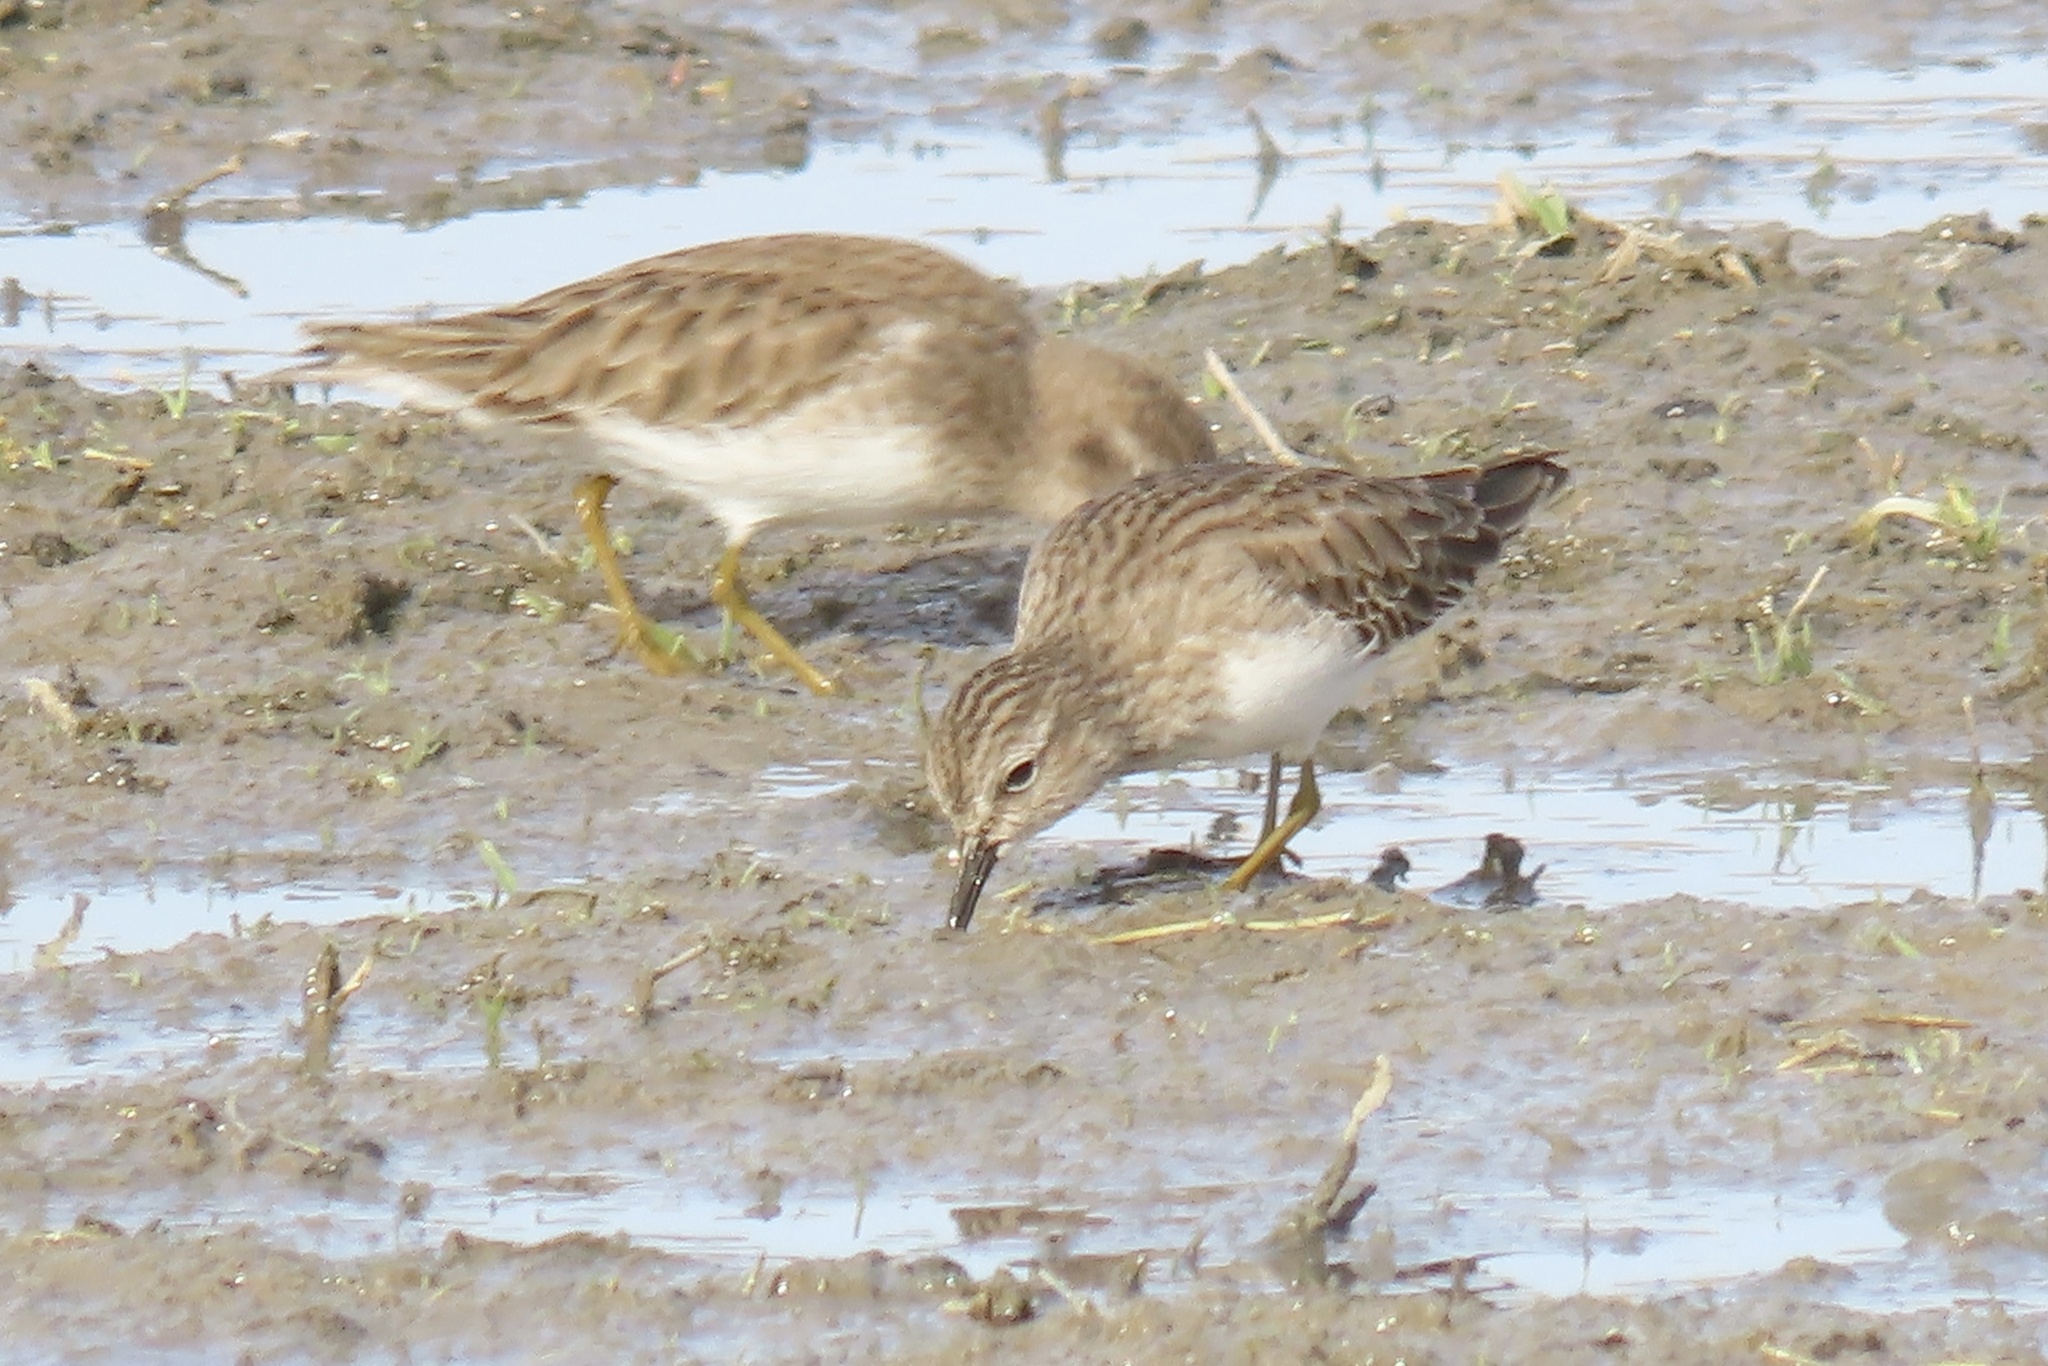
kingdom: Animalia
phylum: Chordata
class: Aves
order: Charadriiformes
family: Scolopacidae
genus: Calidris
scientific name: Calidris minutilla
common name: Least sandpiper
